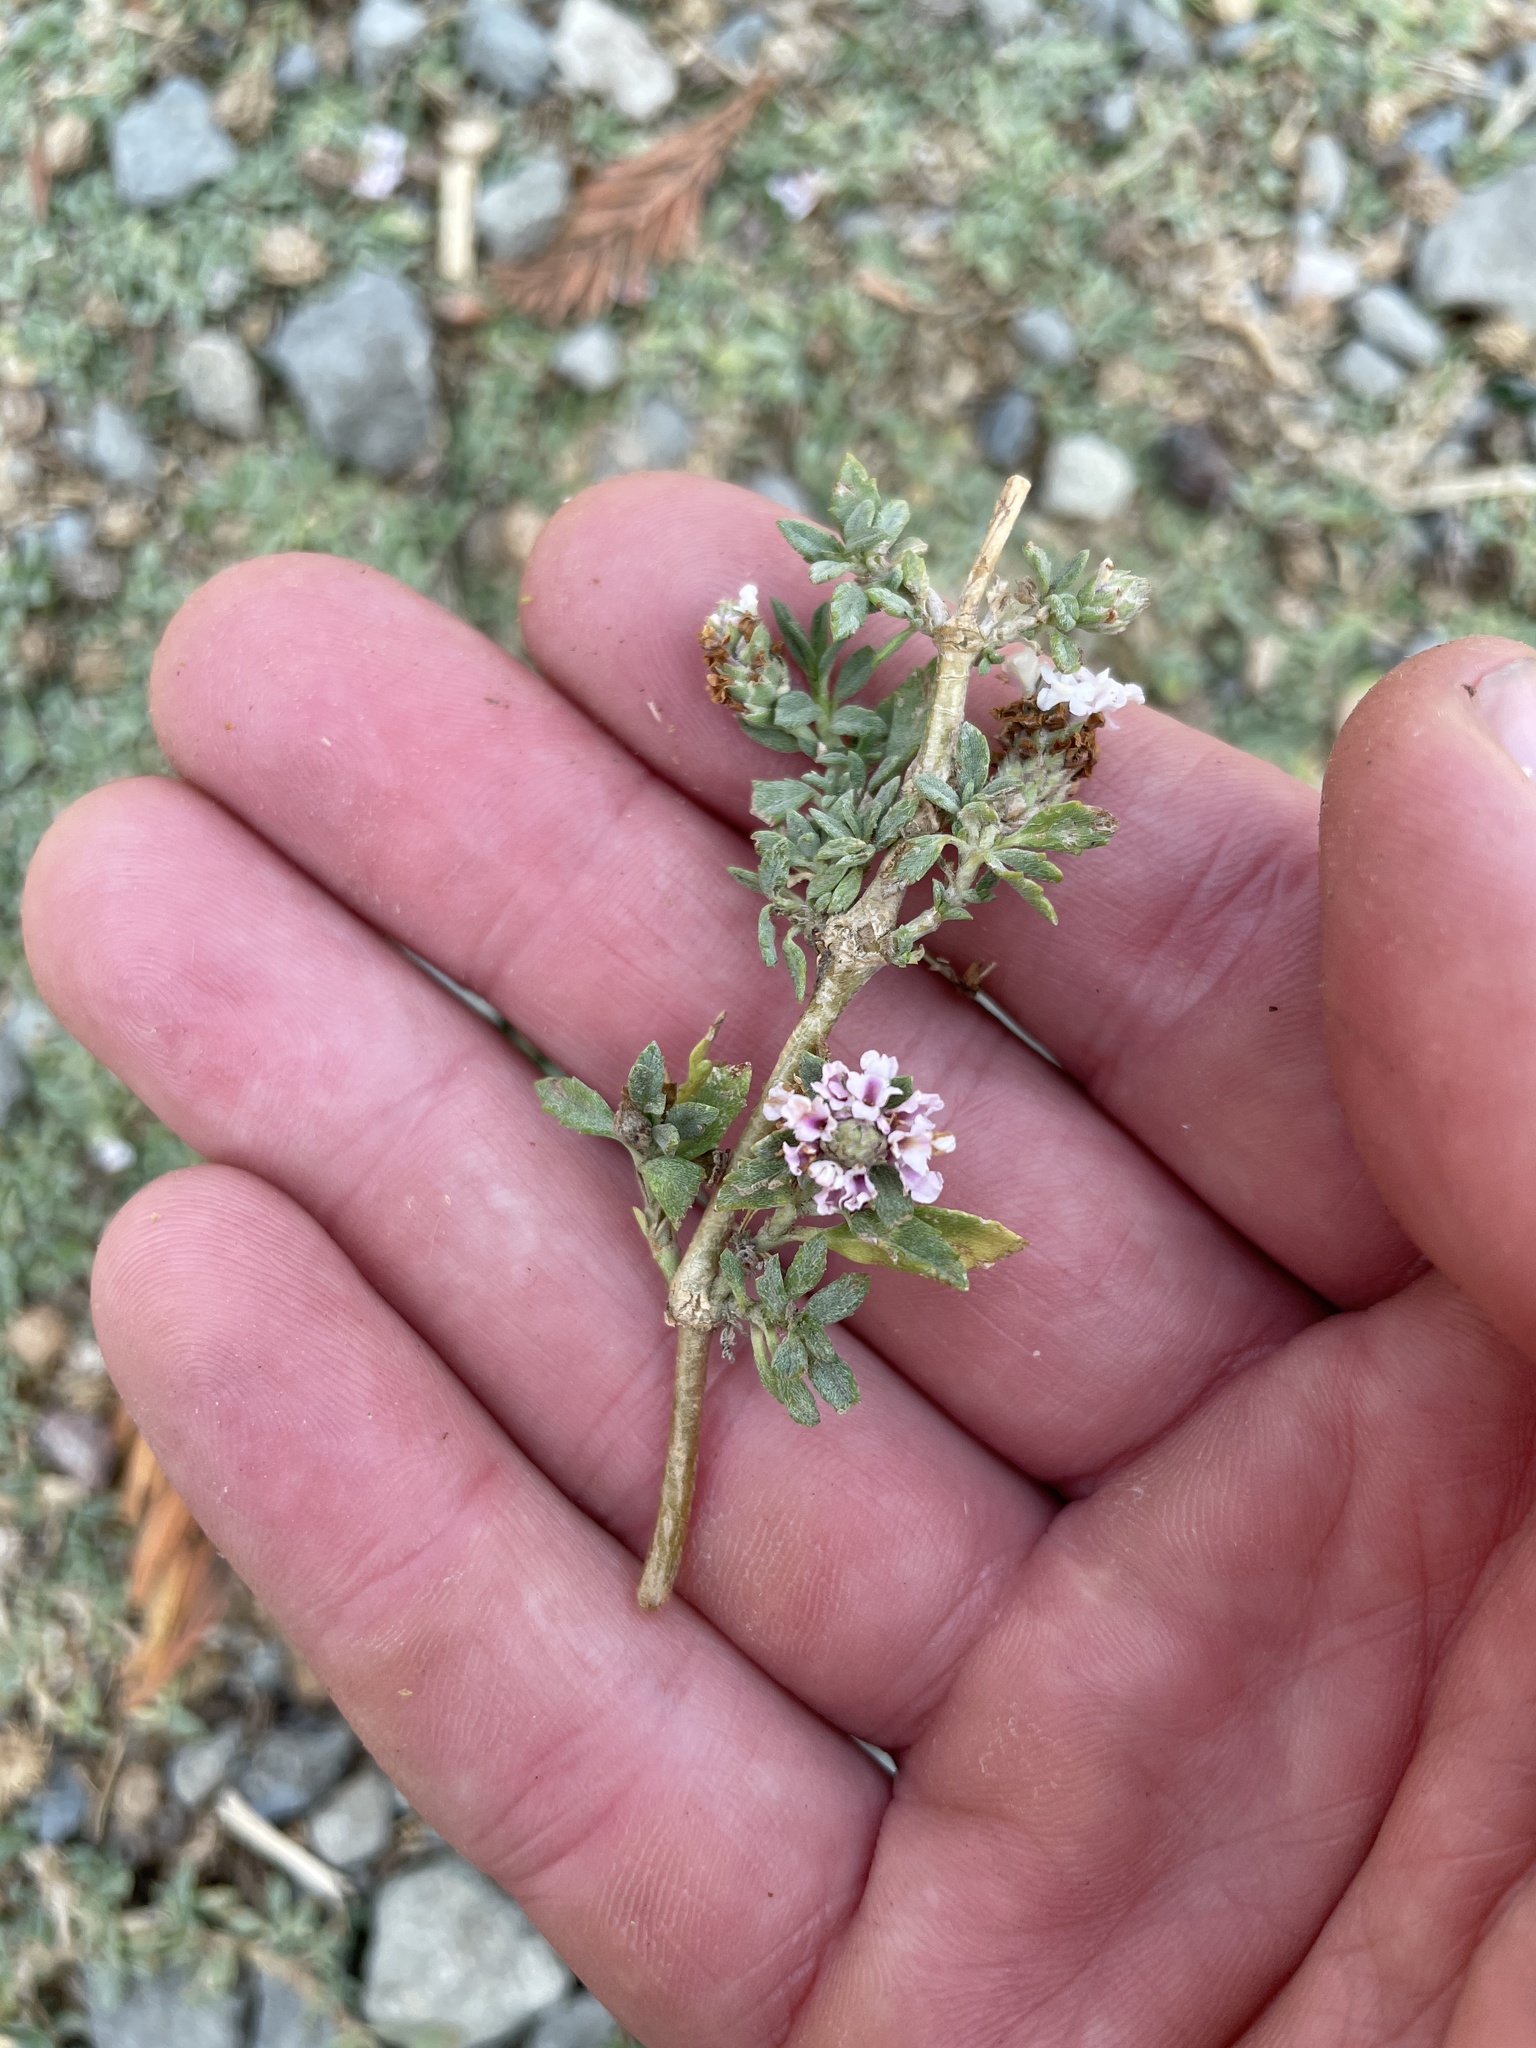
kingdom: Plantae
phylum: Tracheophyta
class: Magnoliopsida
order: Lamiales
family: Verbenaceae
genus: Phyla
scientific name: Phyla nodiflora
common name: Frogfruit
